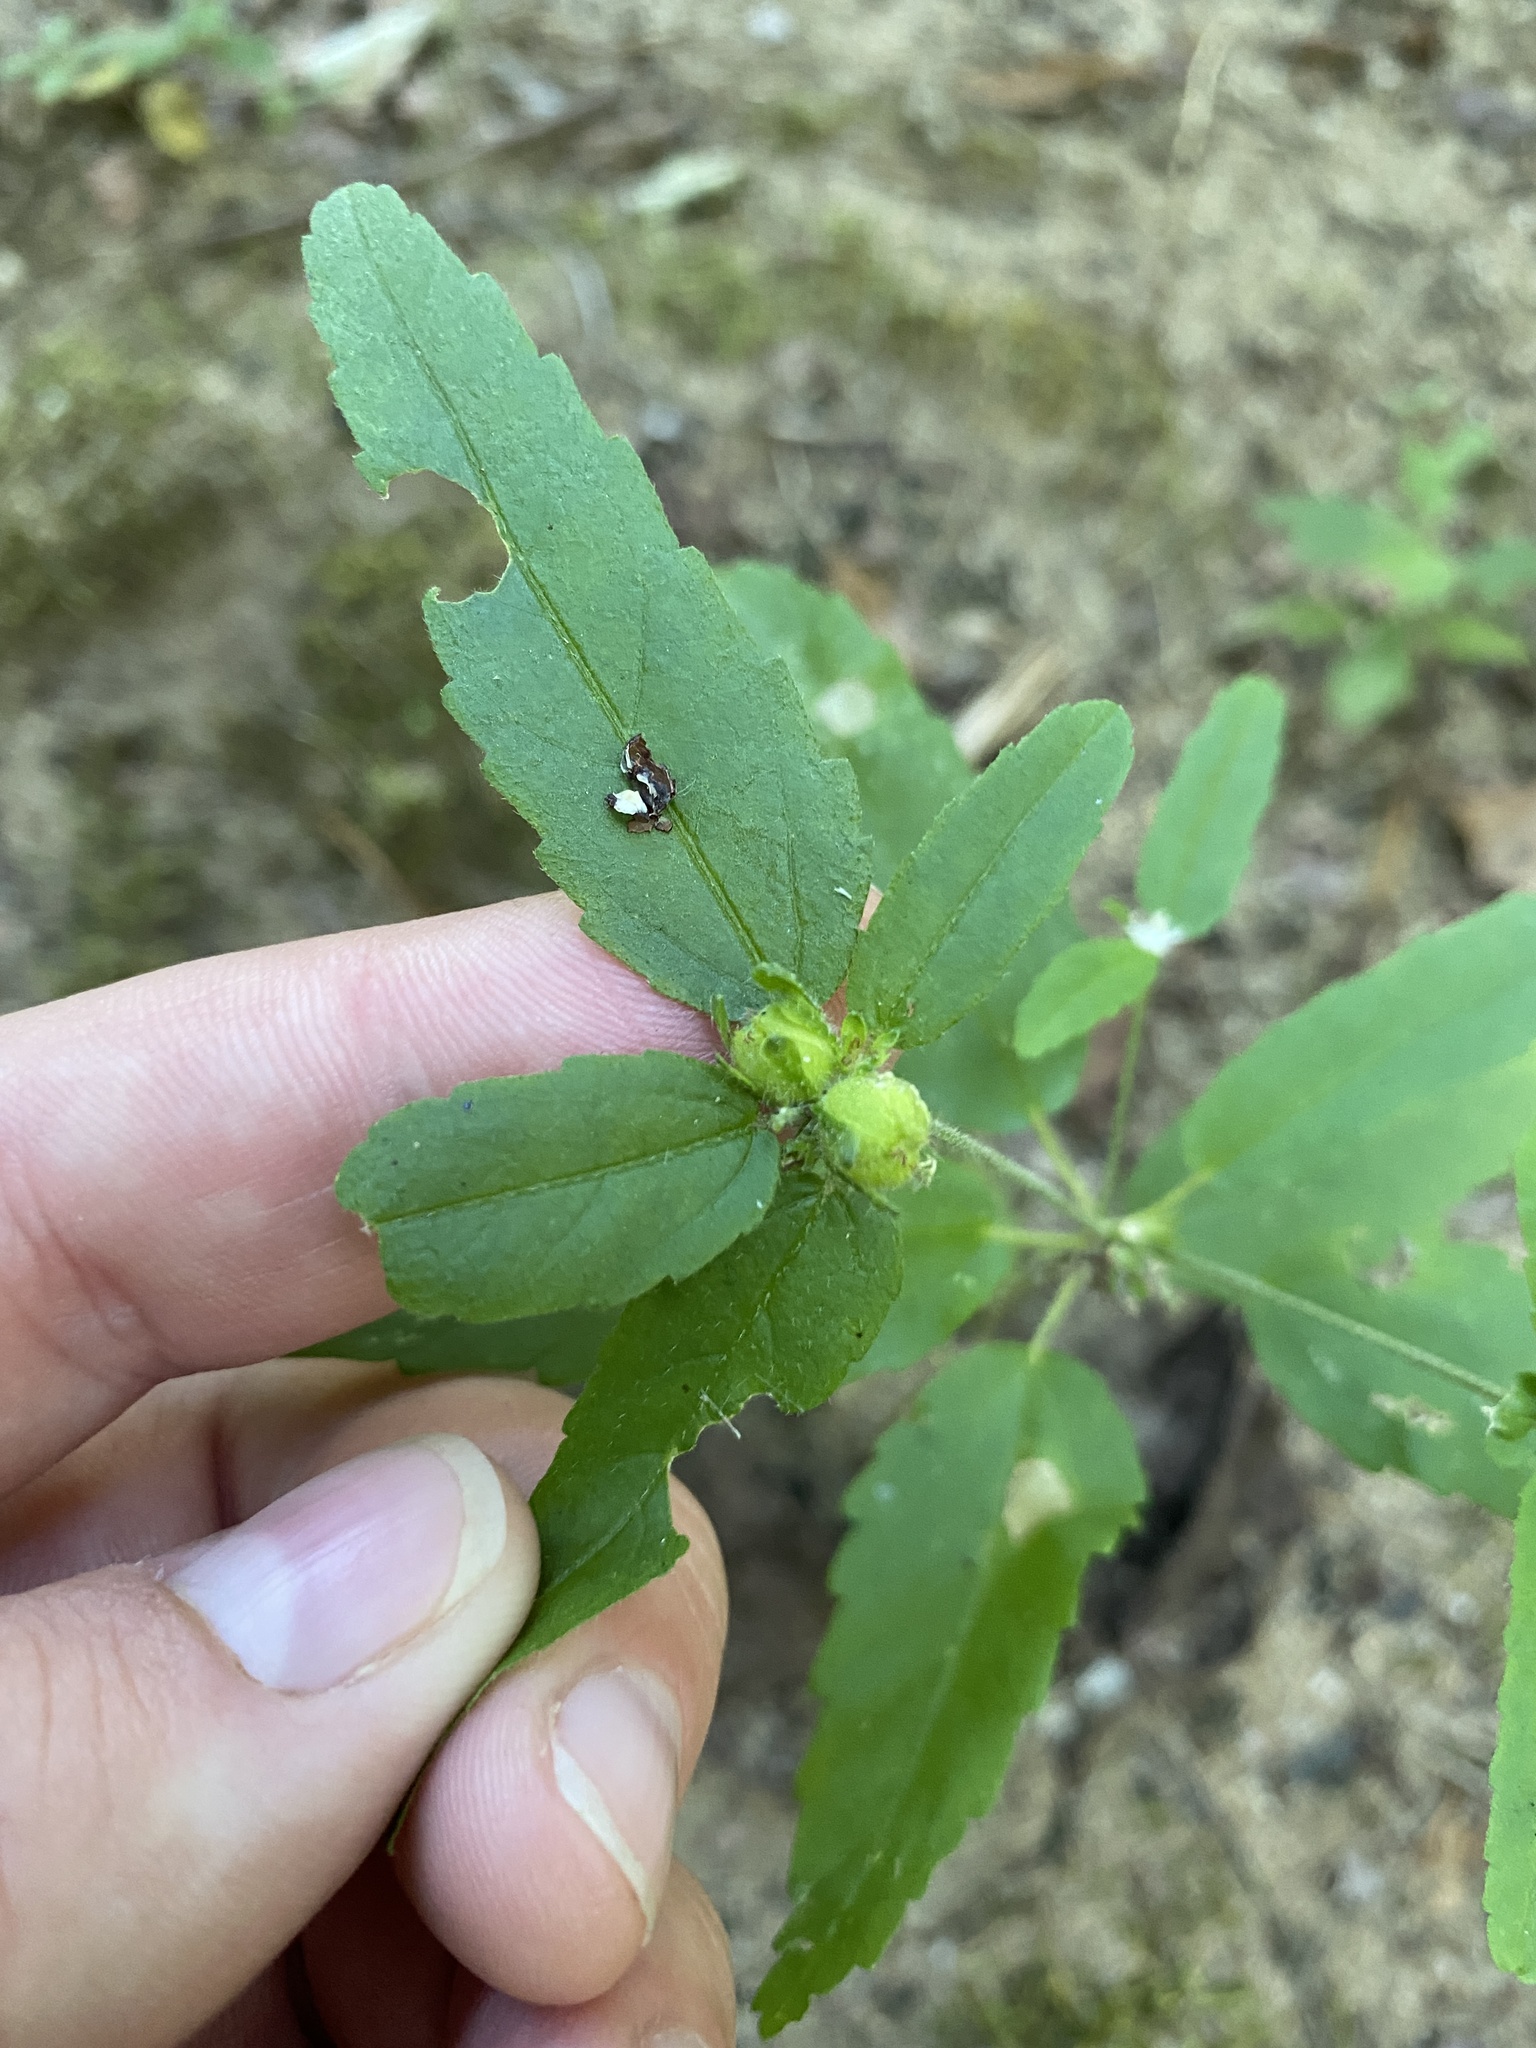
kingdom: Plantae
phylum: Tracheophyta
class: Magnoliopsida
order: Malpighiales
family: Euphorbiaceae
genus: Croton
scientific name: Croton glandulosus
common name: Tropic croton
